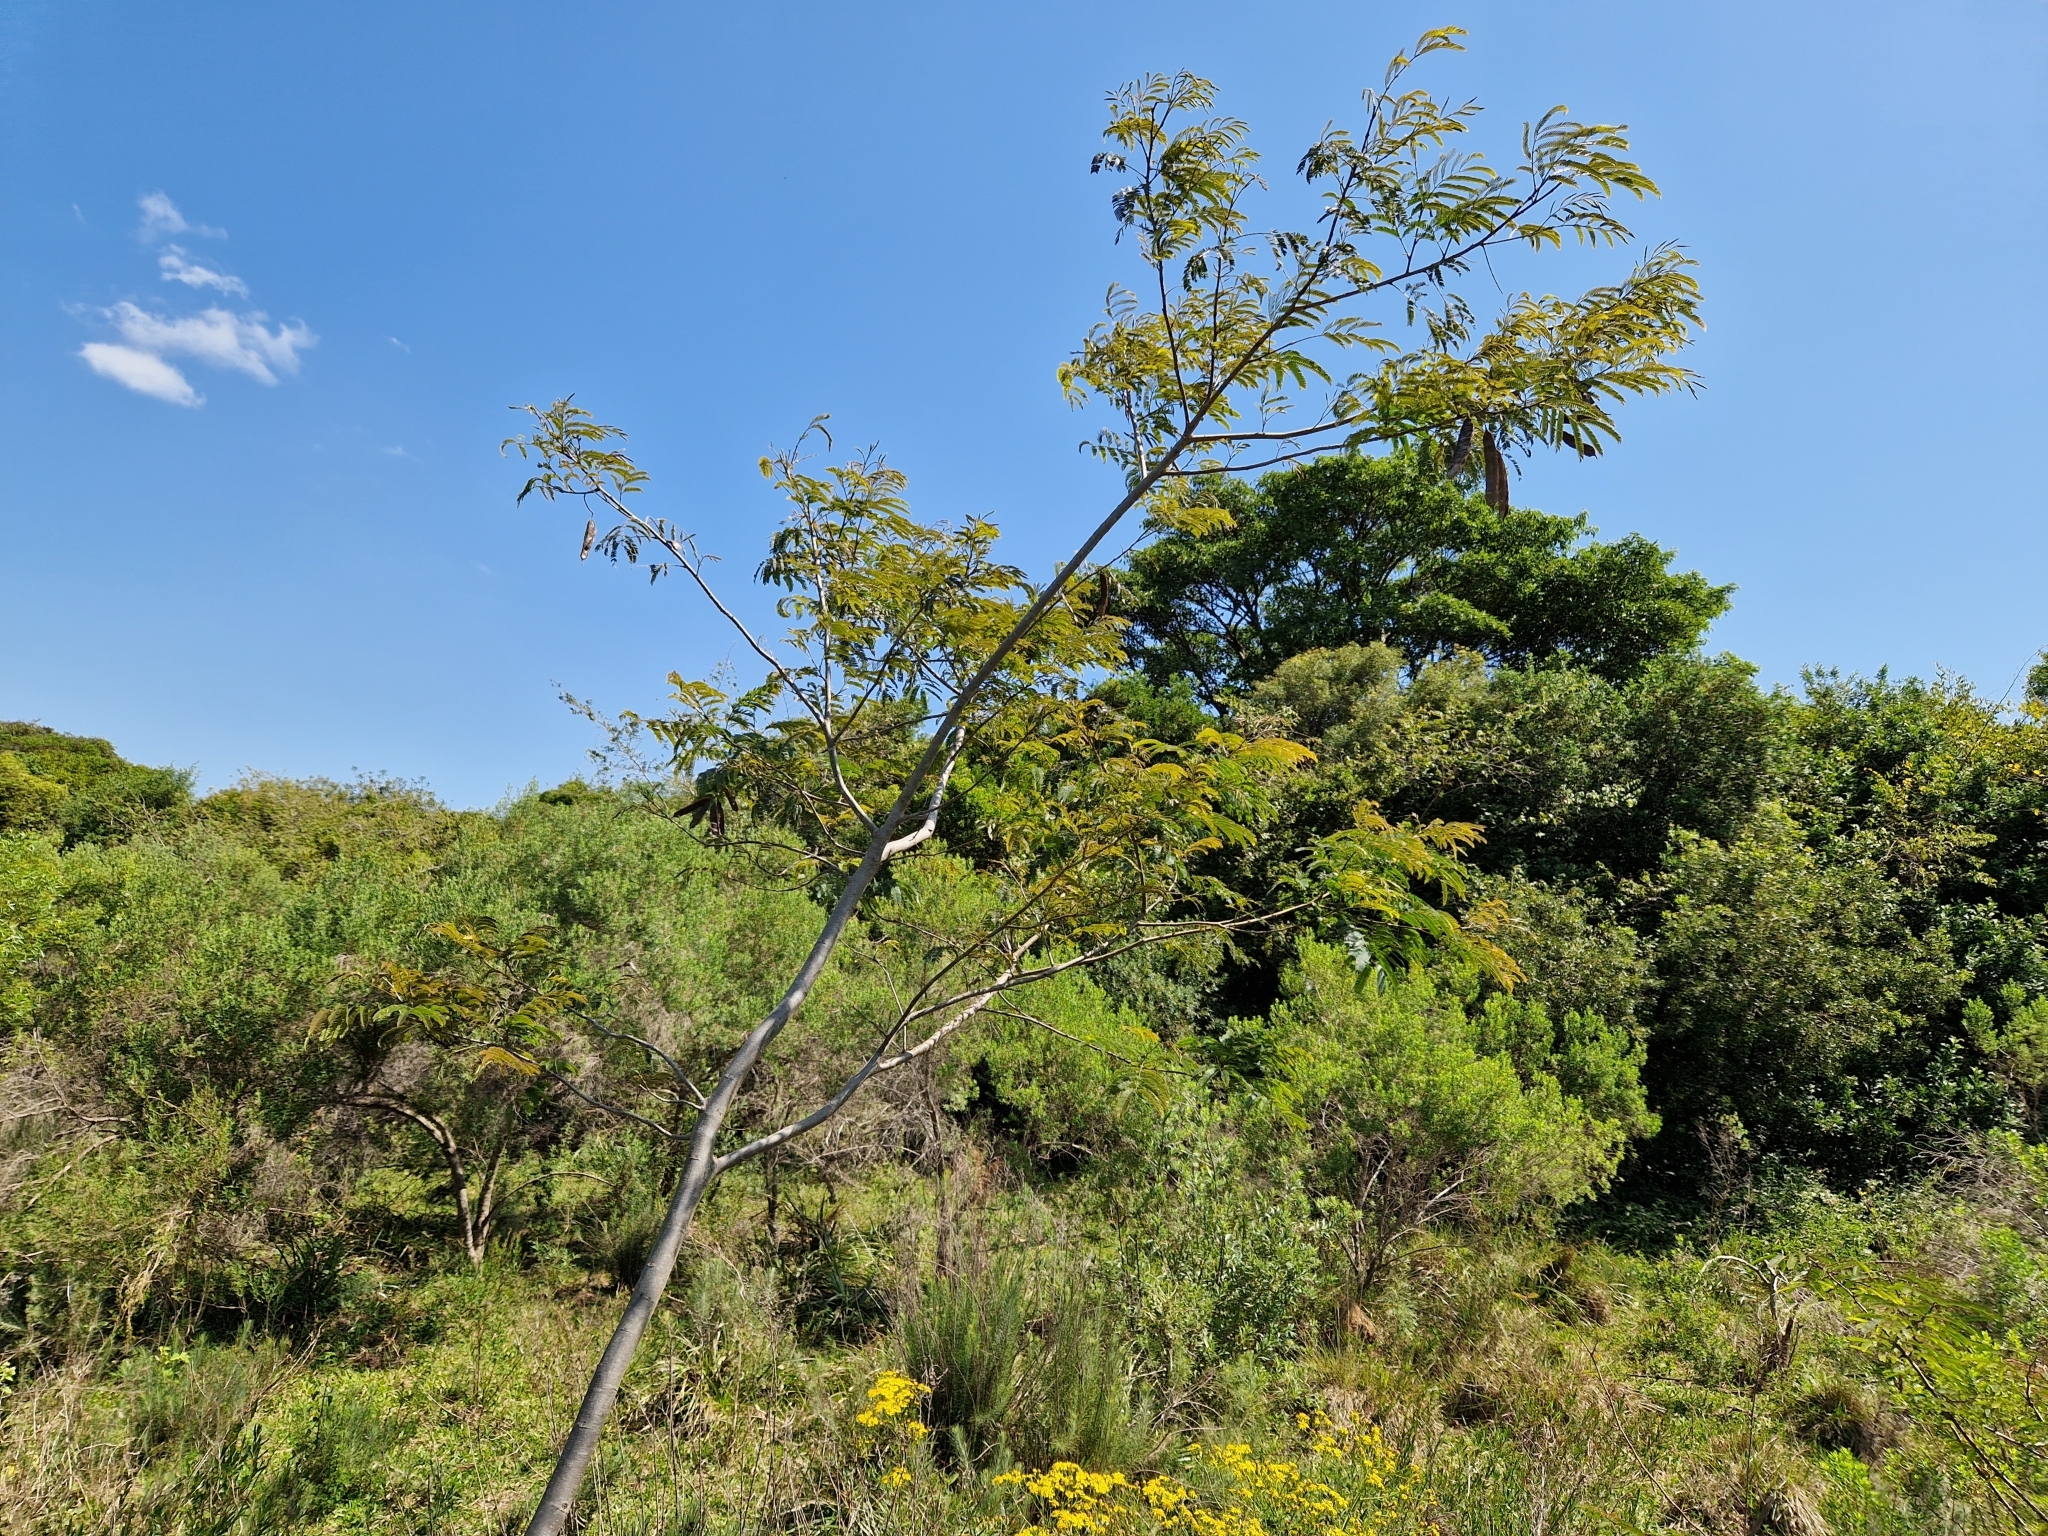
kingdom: Plantae
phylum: Tracheophyta
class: Magnoliopsida
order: Fabales
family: Fabaceae
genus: Parapiptadenia
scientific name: Parapiptadenia rigida
